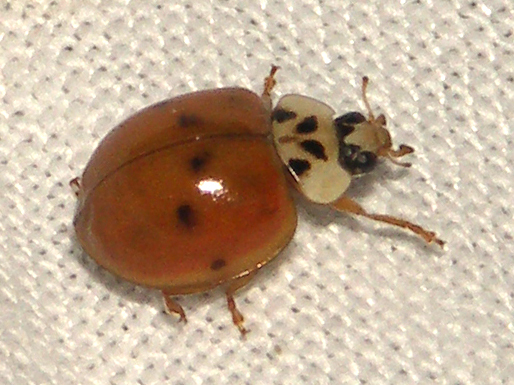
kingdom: Animalia
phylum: Arthropoda
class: Insecta
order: Coleoptera
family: Coccinellidae
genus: Harmonia
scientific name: Harmonia axyridis
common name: Harlequin ladybird
